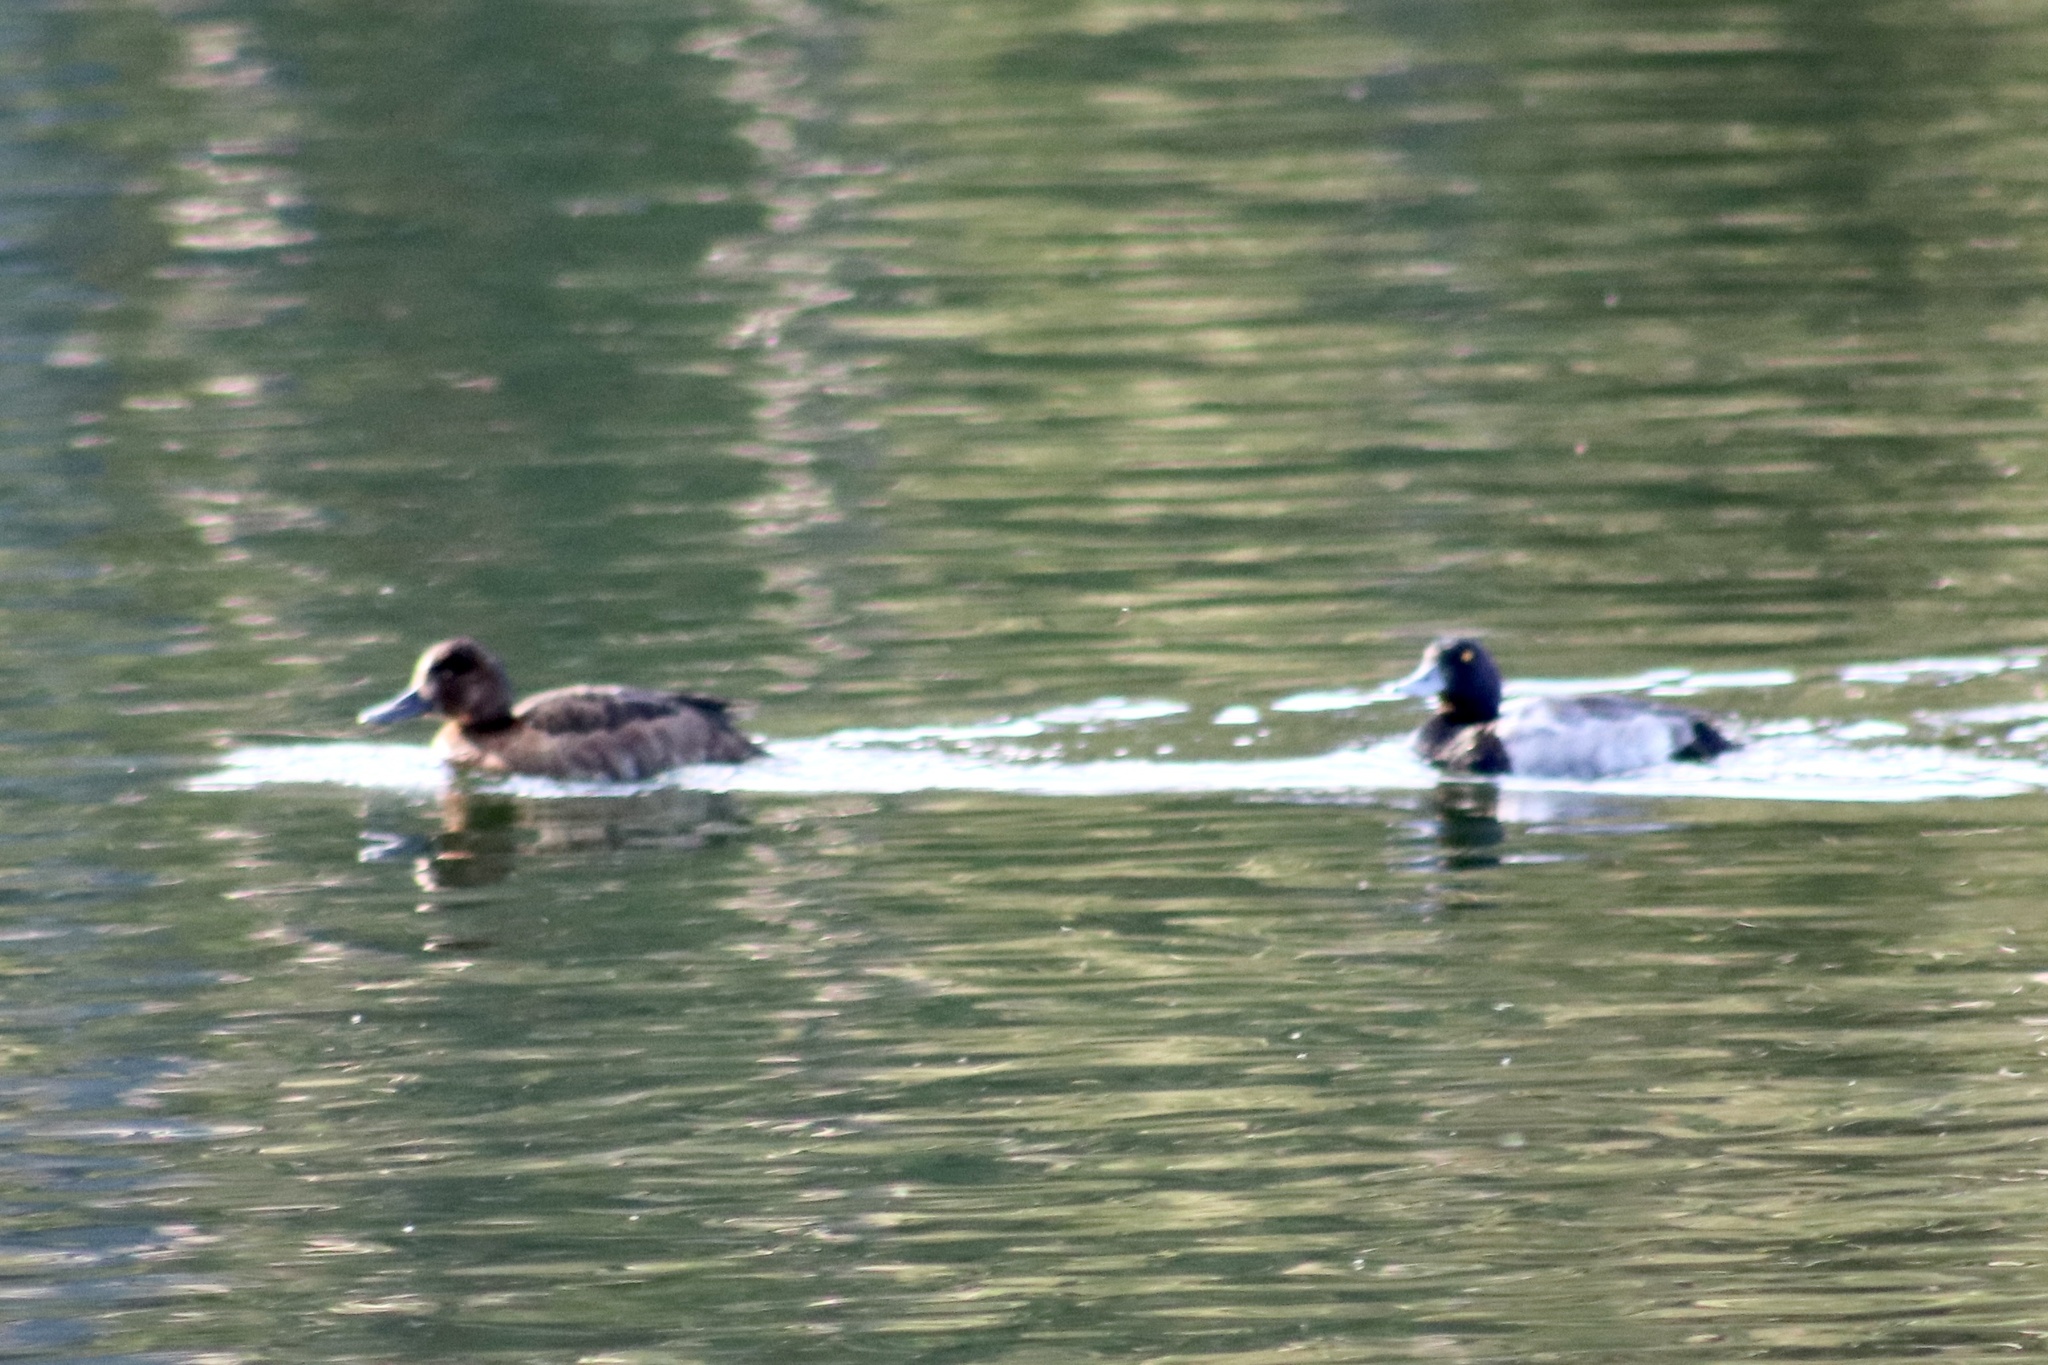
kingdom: Animalia
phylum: Chordata
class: Aves
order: Anseriformes
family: Anatidae
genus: Aythya
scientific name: Aythya affinis
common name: Lesser scaup
